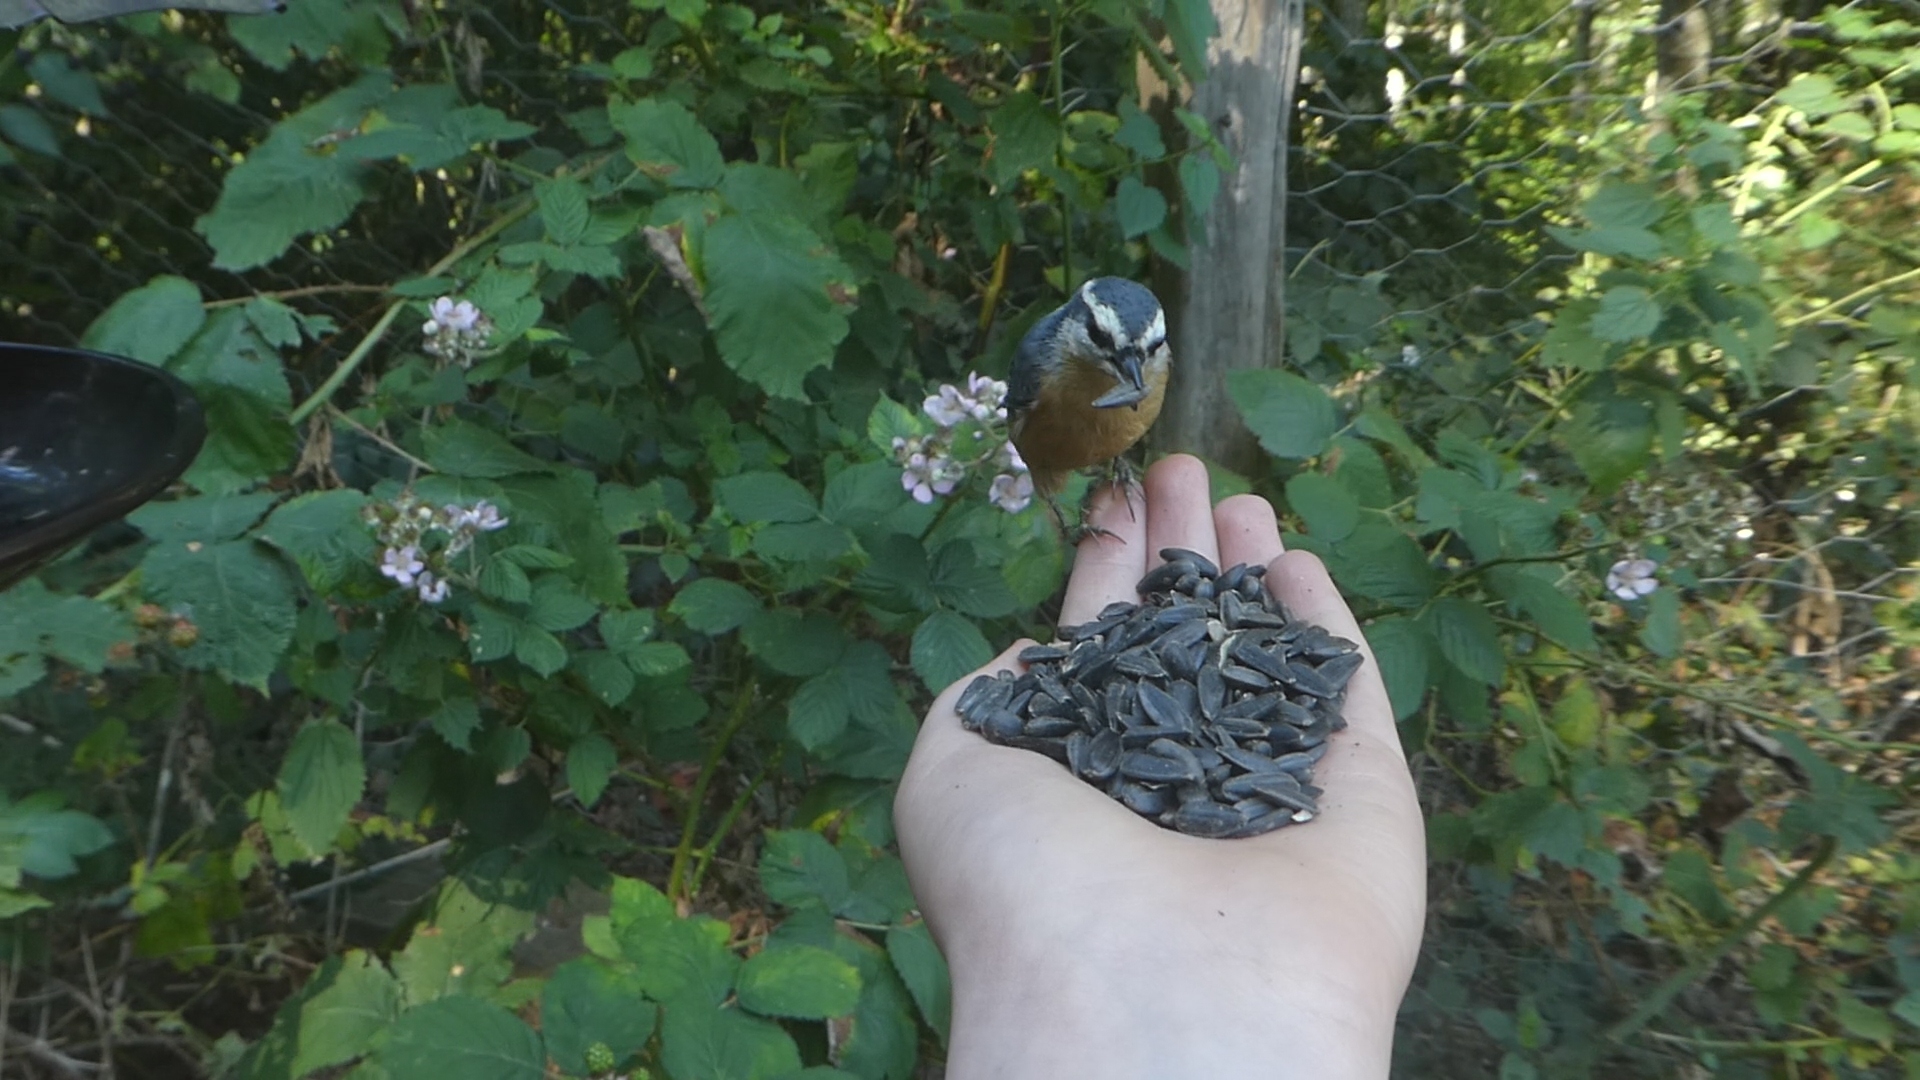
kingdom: Animalia
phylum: Chordata
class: Aves
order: Passeriformes
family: Sittidae
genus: Sitta
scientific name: Sitta canadensis
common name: Red-breasted nuthatch
